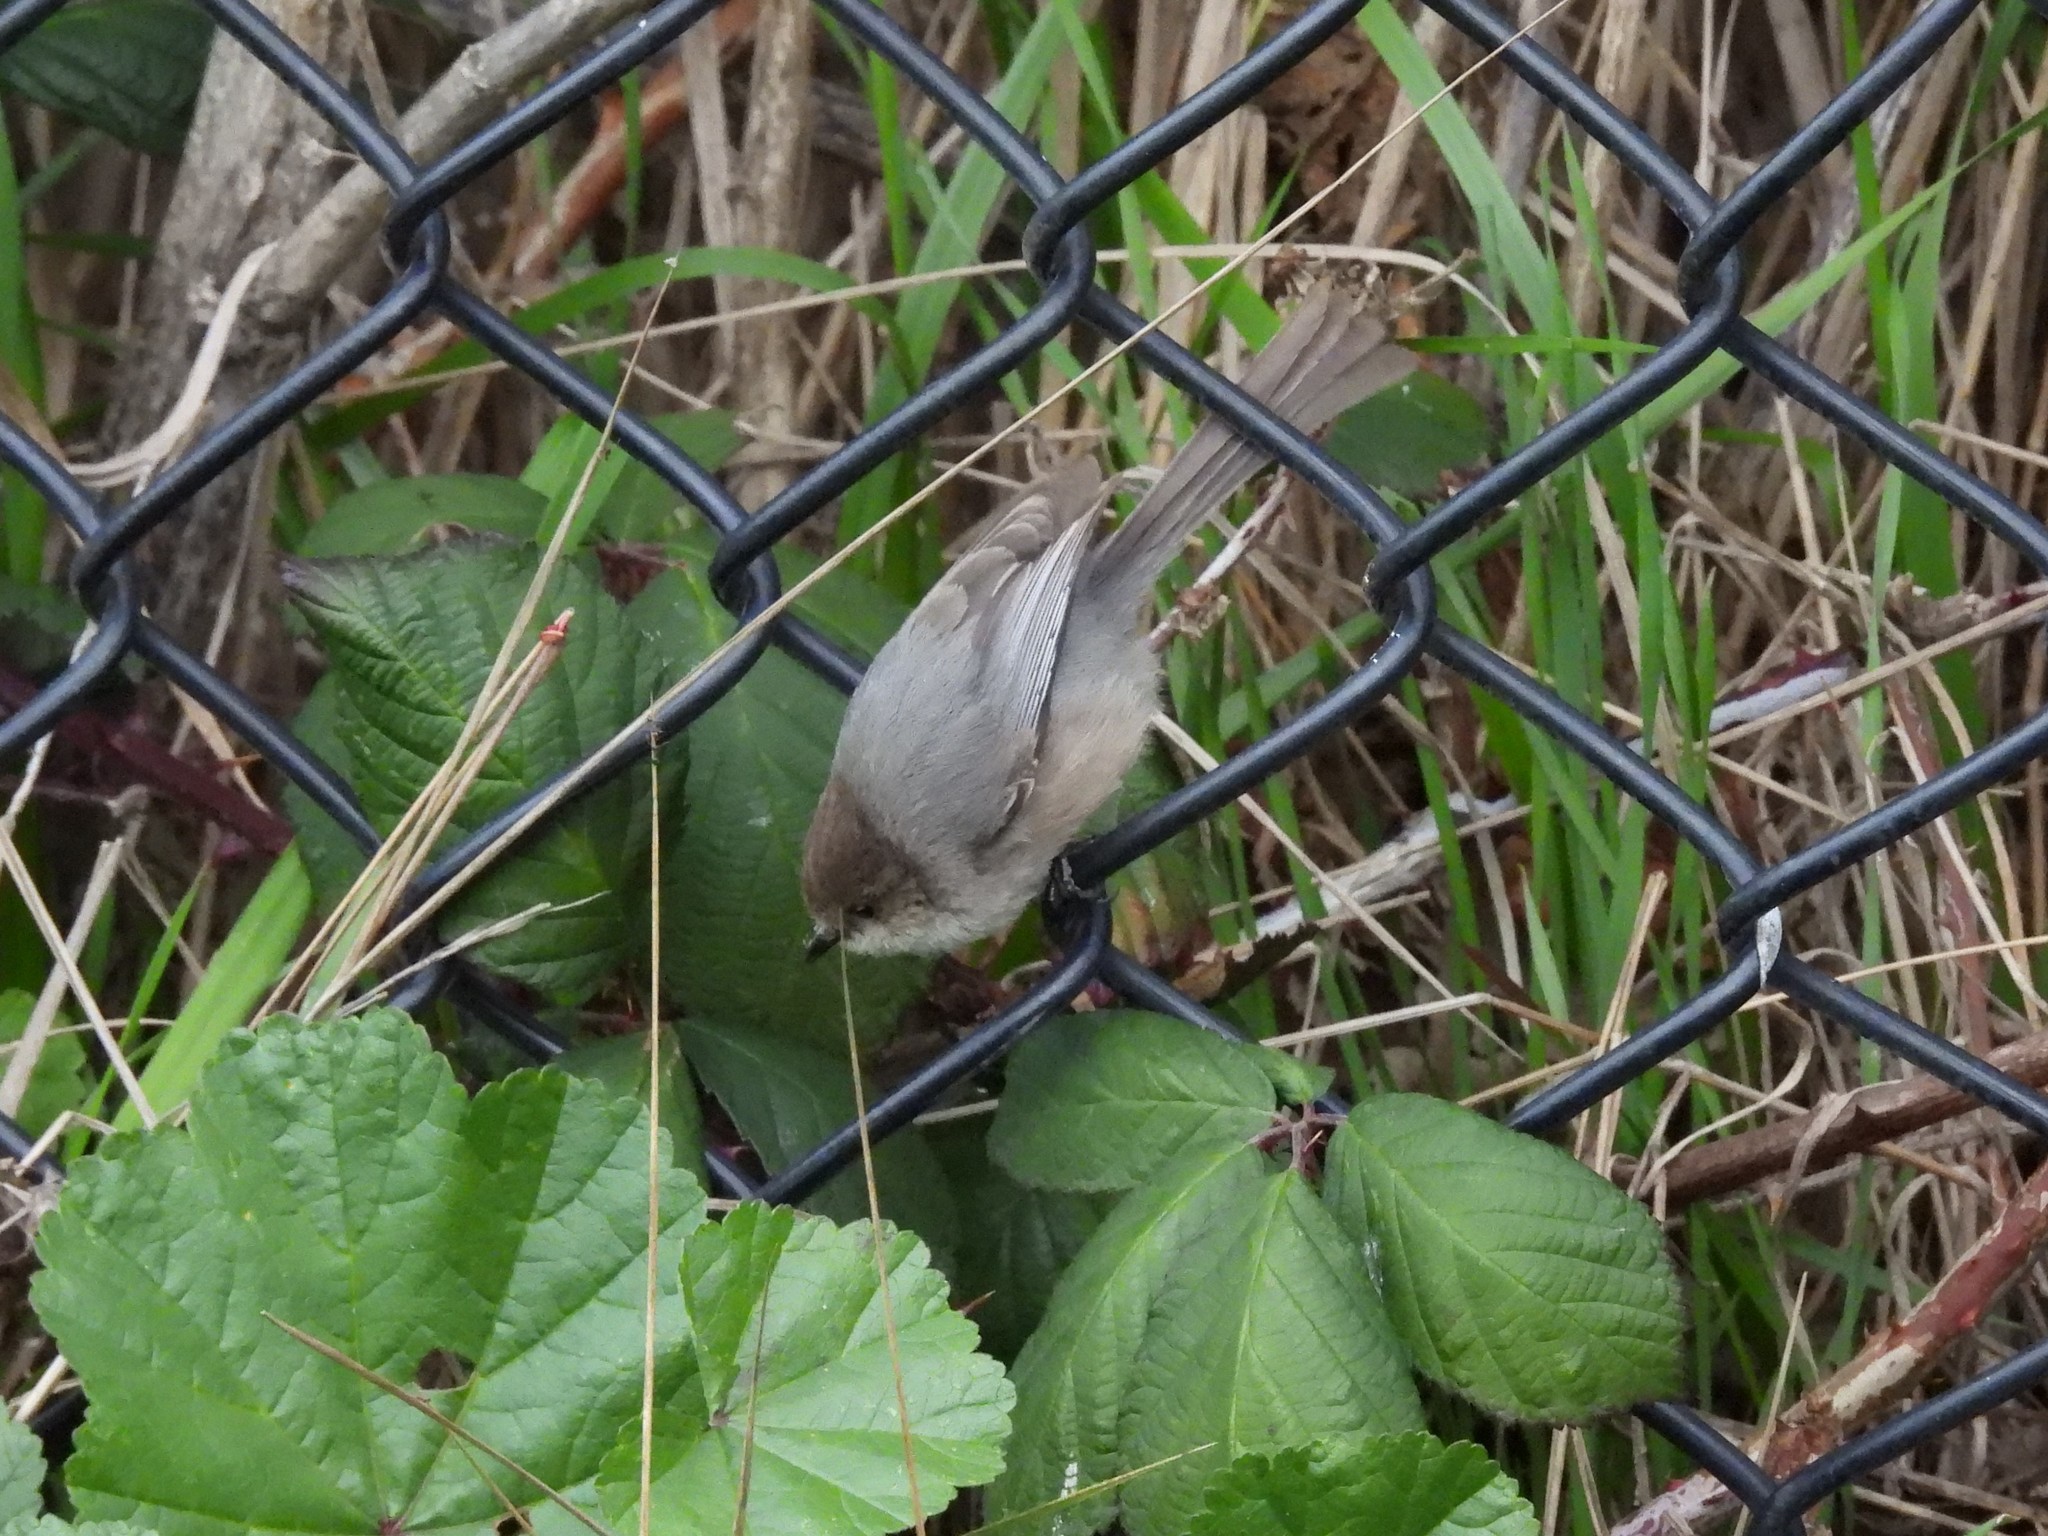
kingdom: Animalia
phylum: Chordata
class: Aves
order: Passeriformes
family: Aegithalidae
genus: Psaltriparus
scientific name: Psaltriparus minimus
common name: American bushtit
